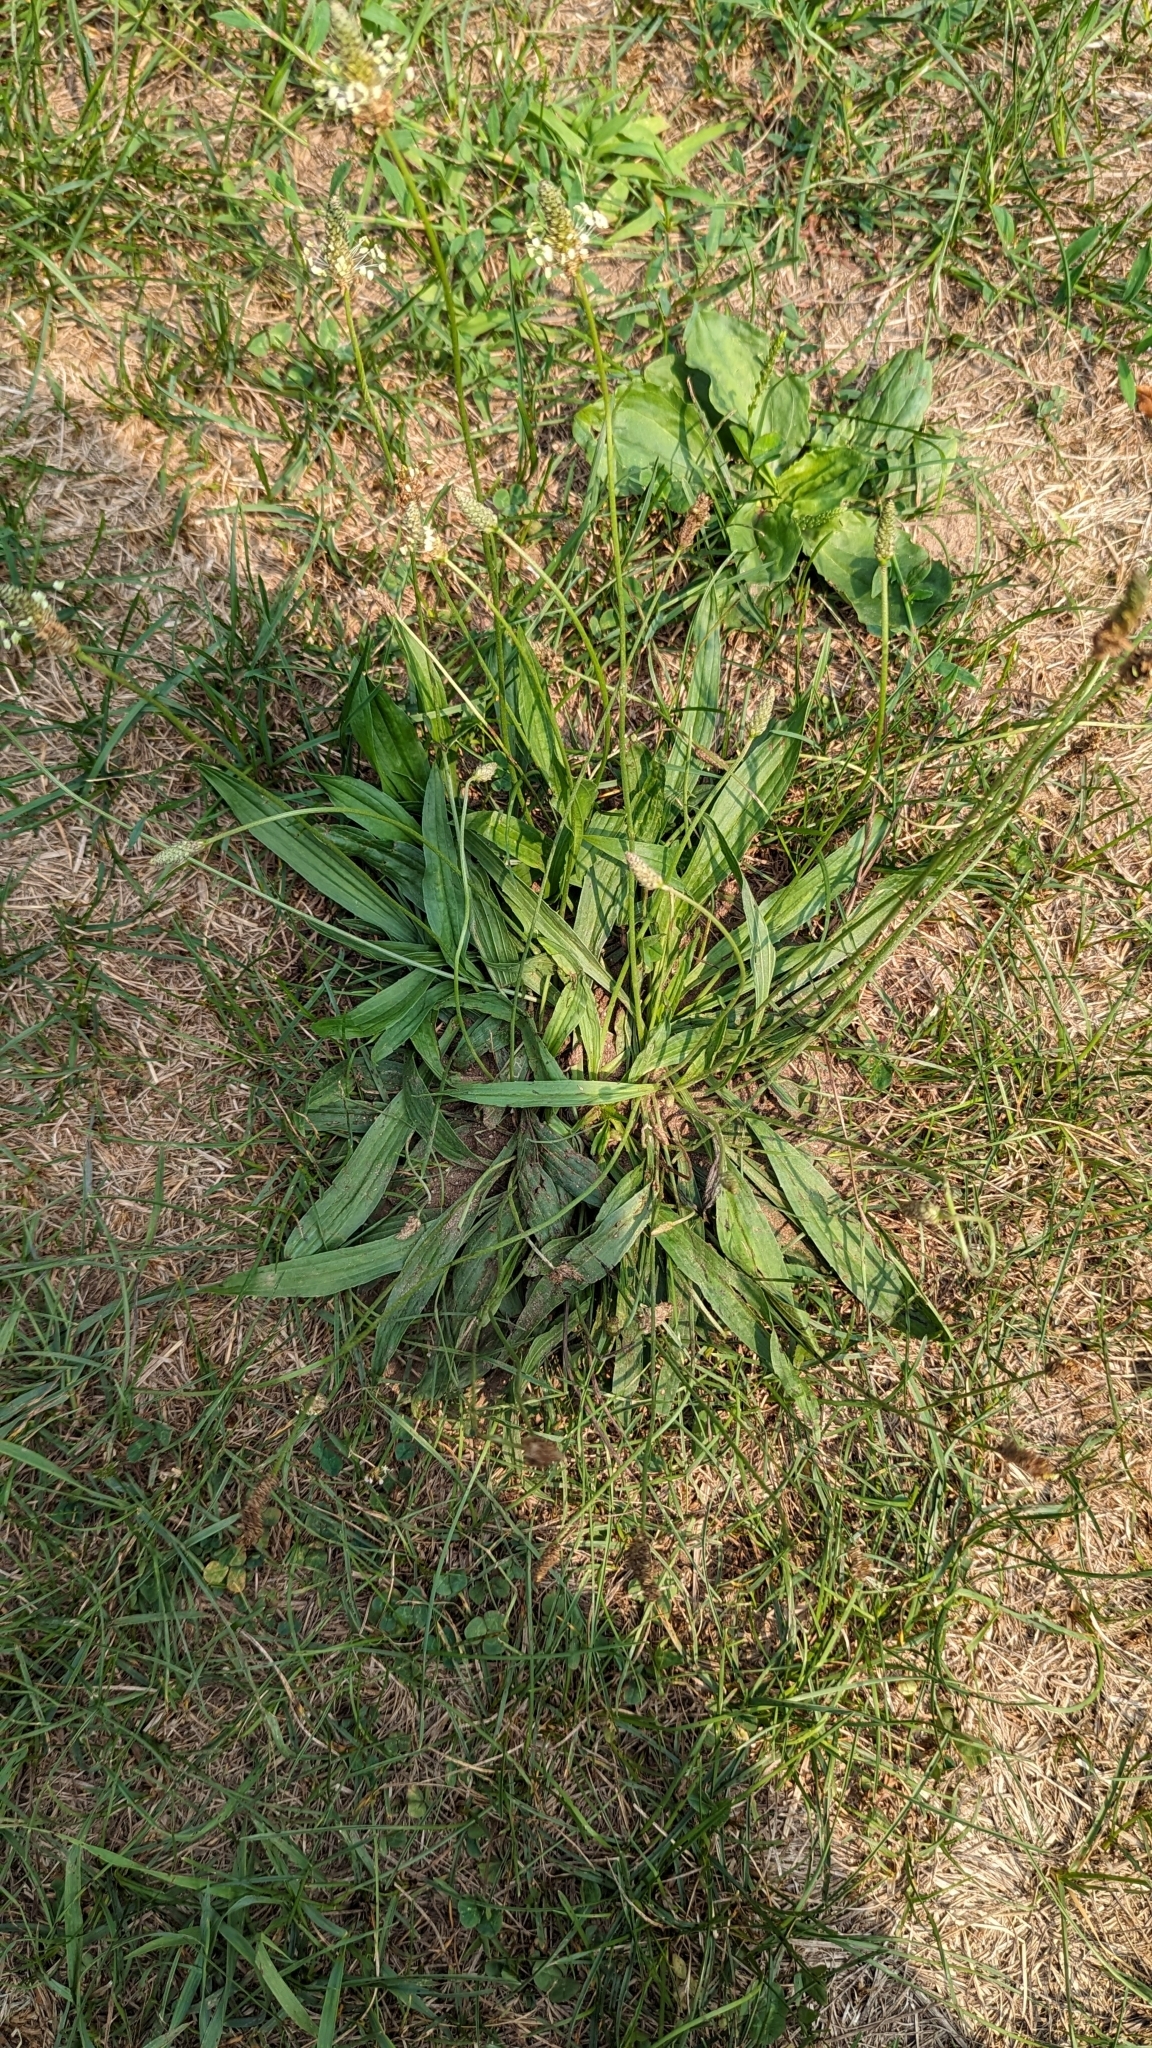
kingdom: Plantae
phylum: Tracheophyta
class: Magnoliopsida
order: Lamiales
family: Plantaginaceae
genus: Plantago
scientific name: Plantago lanceolata
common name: Ribwort plantain
